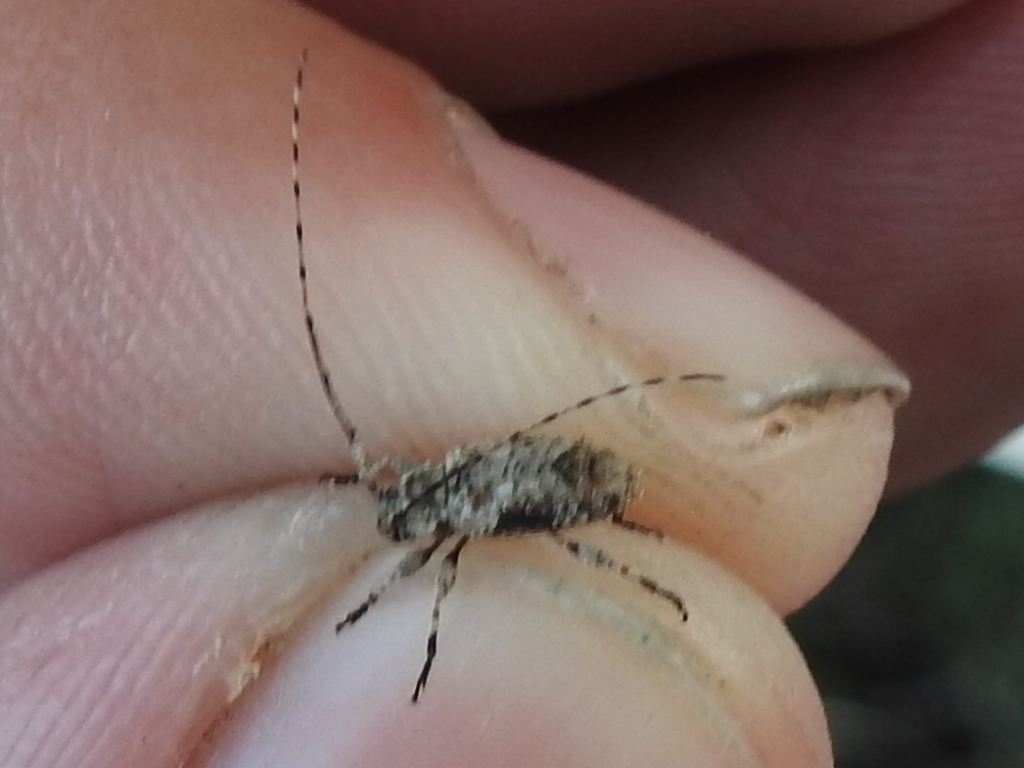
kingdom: Animalia
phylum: Arthropoda
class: Insecta
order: Coleoptera
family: Cerambycidae
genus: Sternidius
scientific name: Sternidius mimeticus
